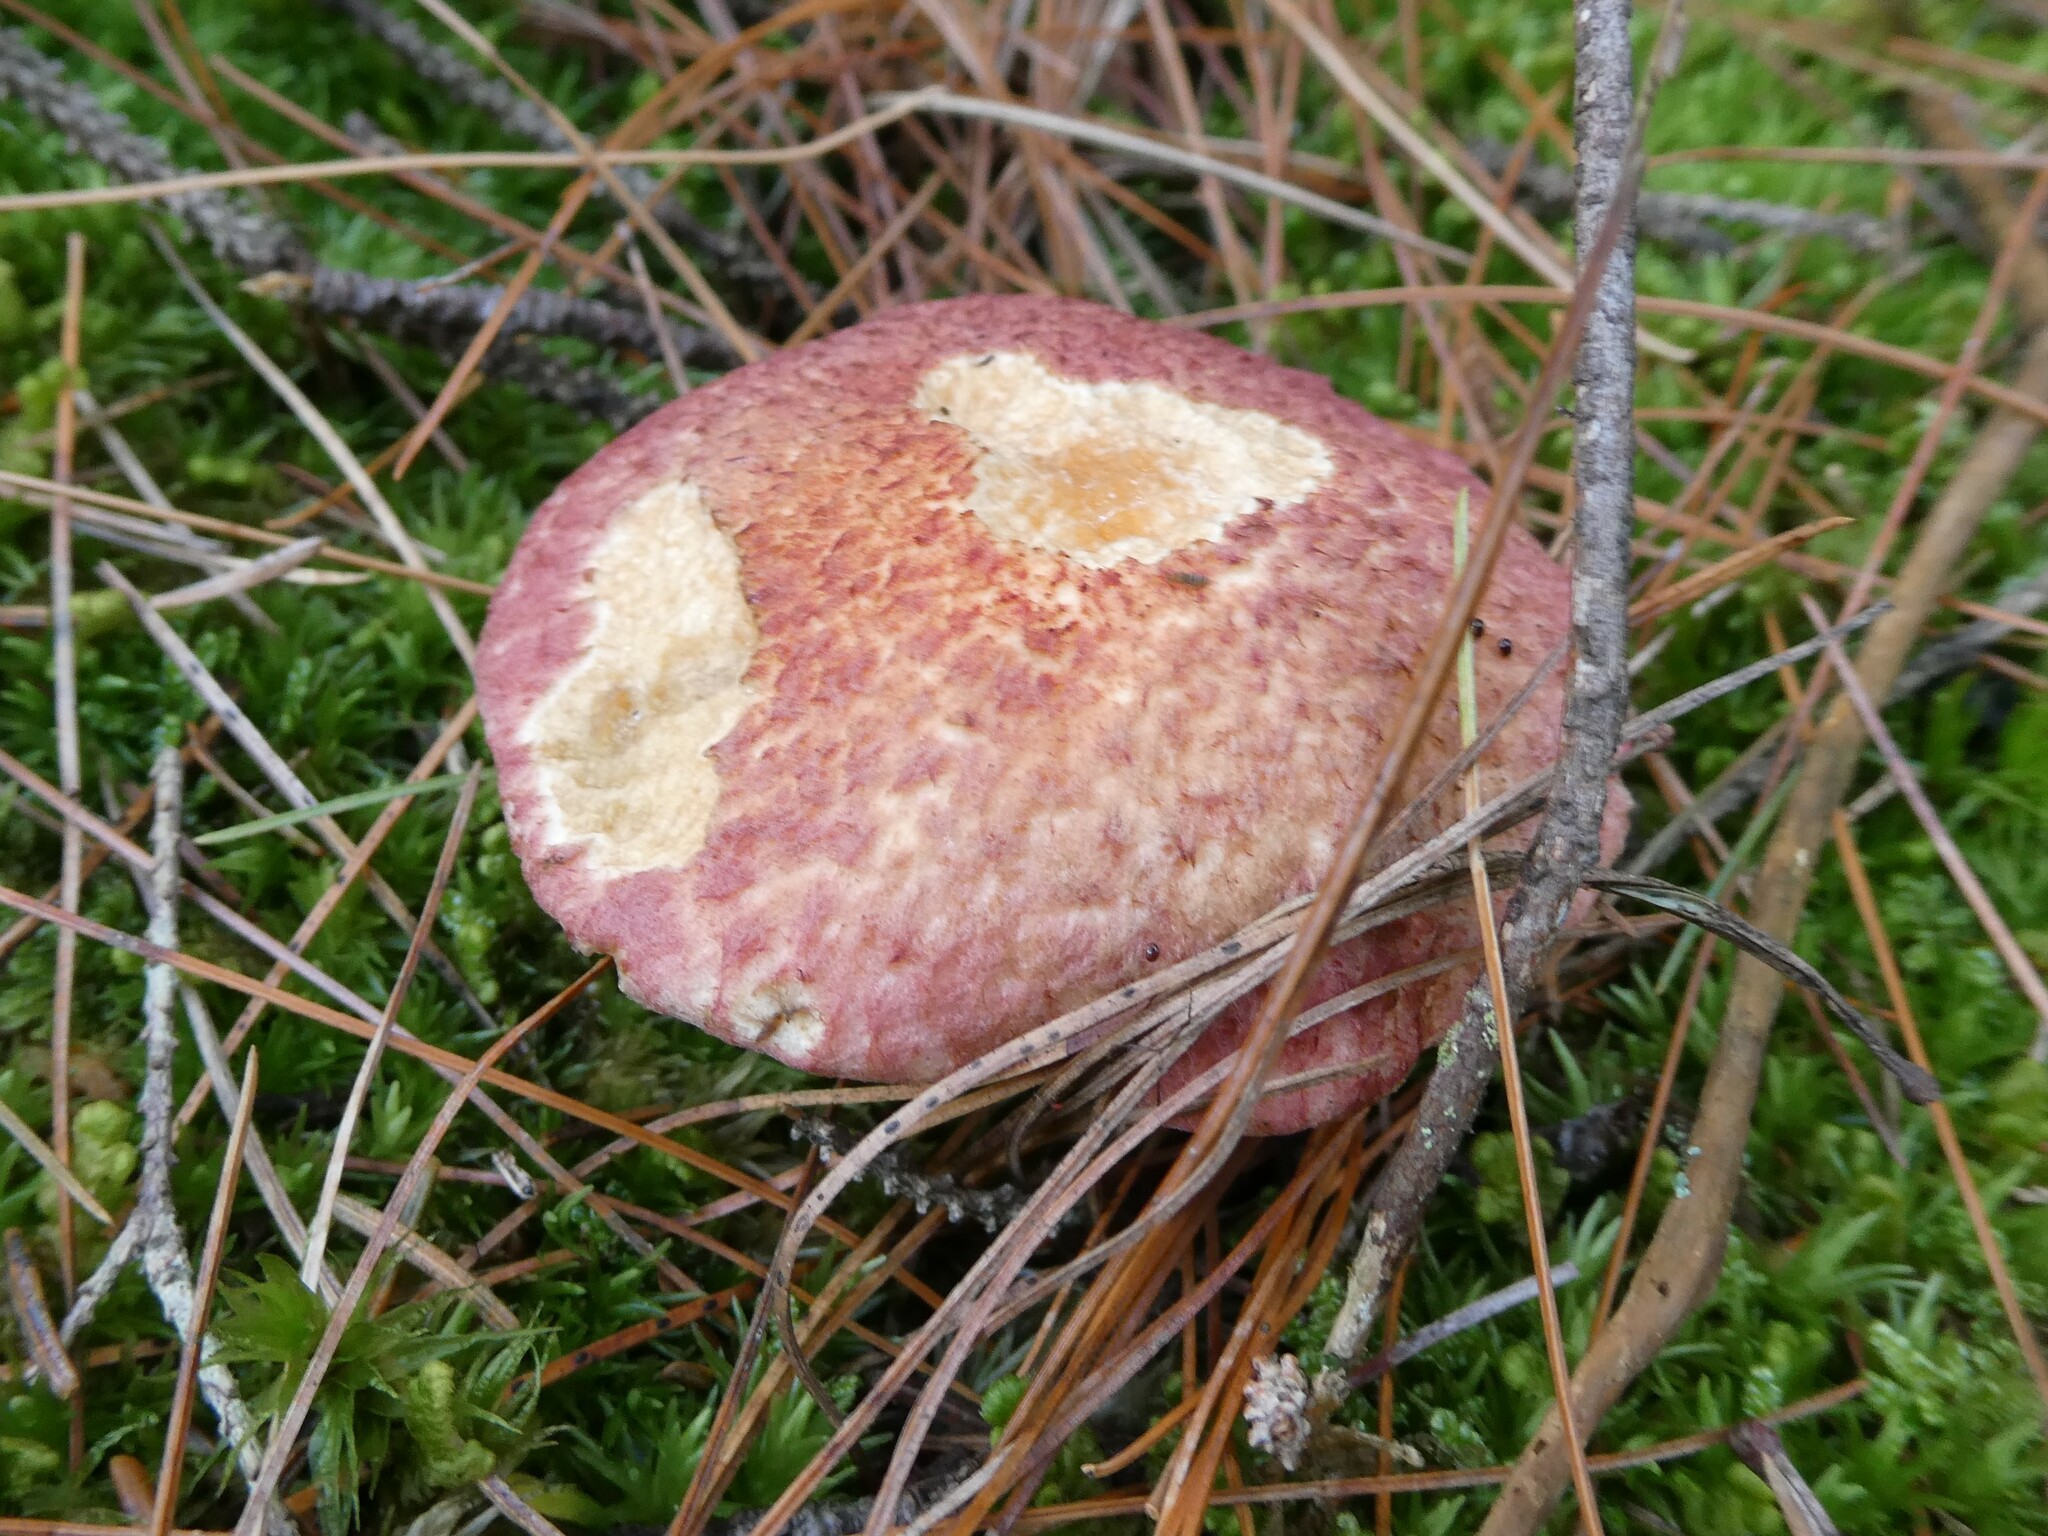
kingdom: Fungi
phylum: Basidiomycota
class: Agaricomycetes
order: Boletales
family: Suillaceae
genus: Suillus
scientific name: Suillus spraguei
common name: Painted suillus
